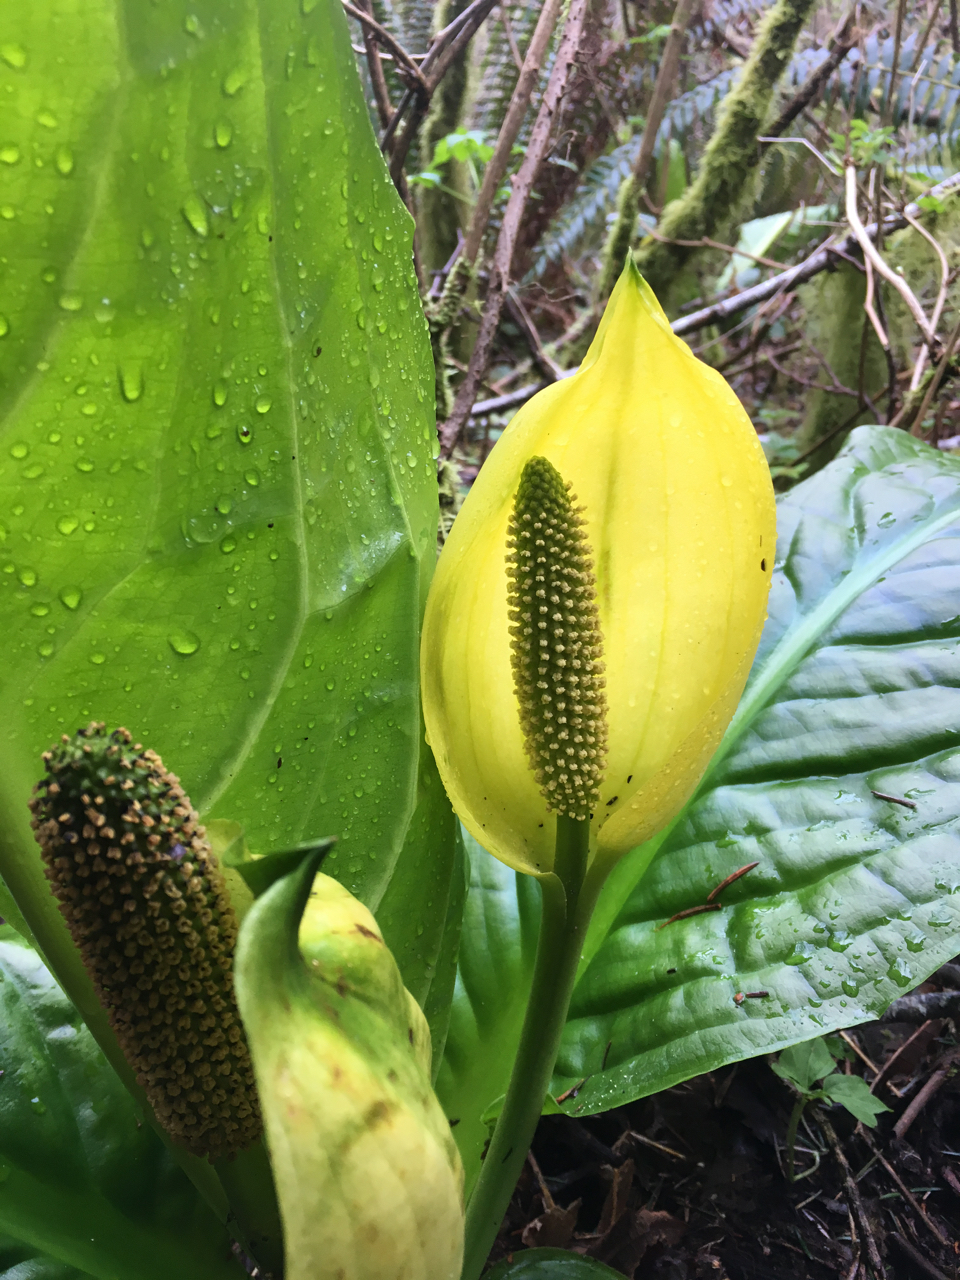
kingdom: Plantae
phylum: Tracheophyta
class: Liliopsida
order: Alismatales
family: Araceae
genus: Lysichiton
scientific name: Lysichiton americanus
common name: American skunk cabbage
